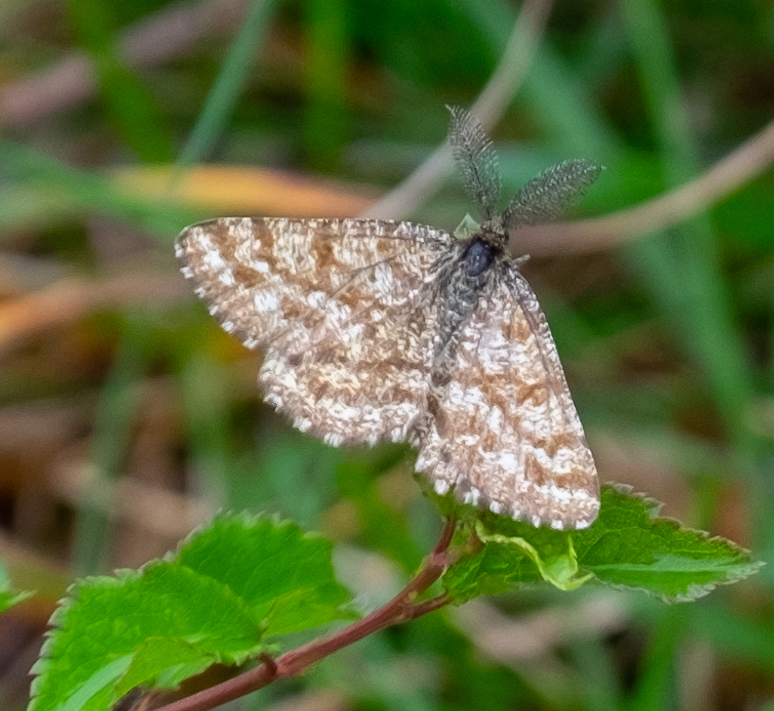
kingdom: Animalia
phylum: Arthropoda
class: Insecta
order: Lepidoptera
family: Geometridae
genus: Ematurga
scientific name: Ematurga atomaria
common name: Common heath
